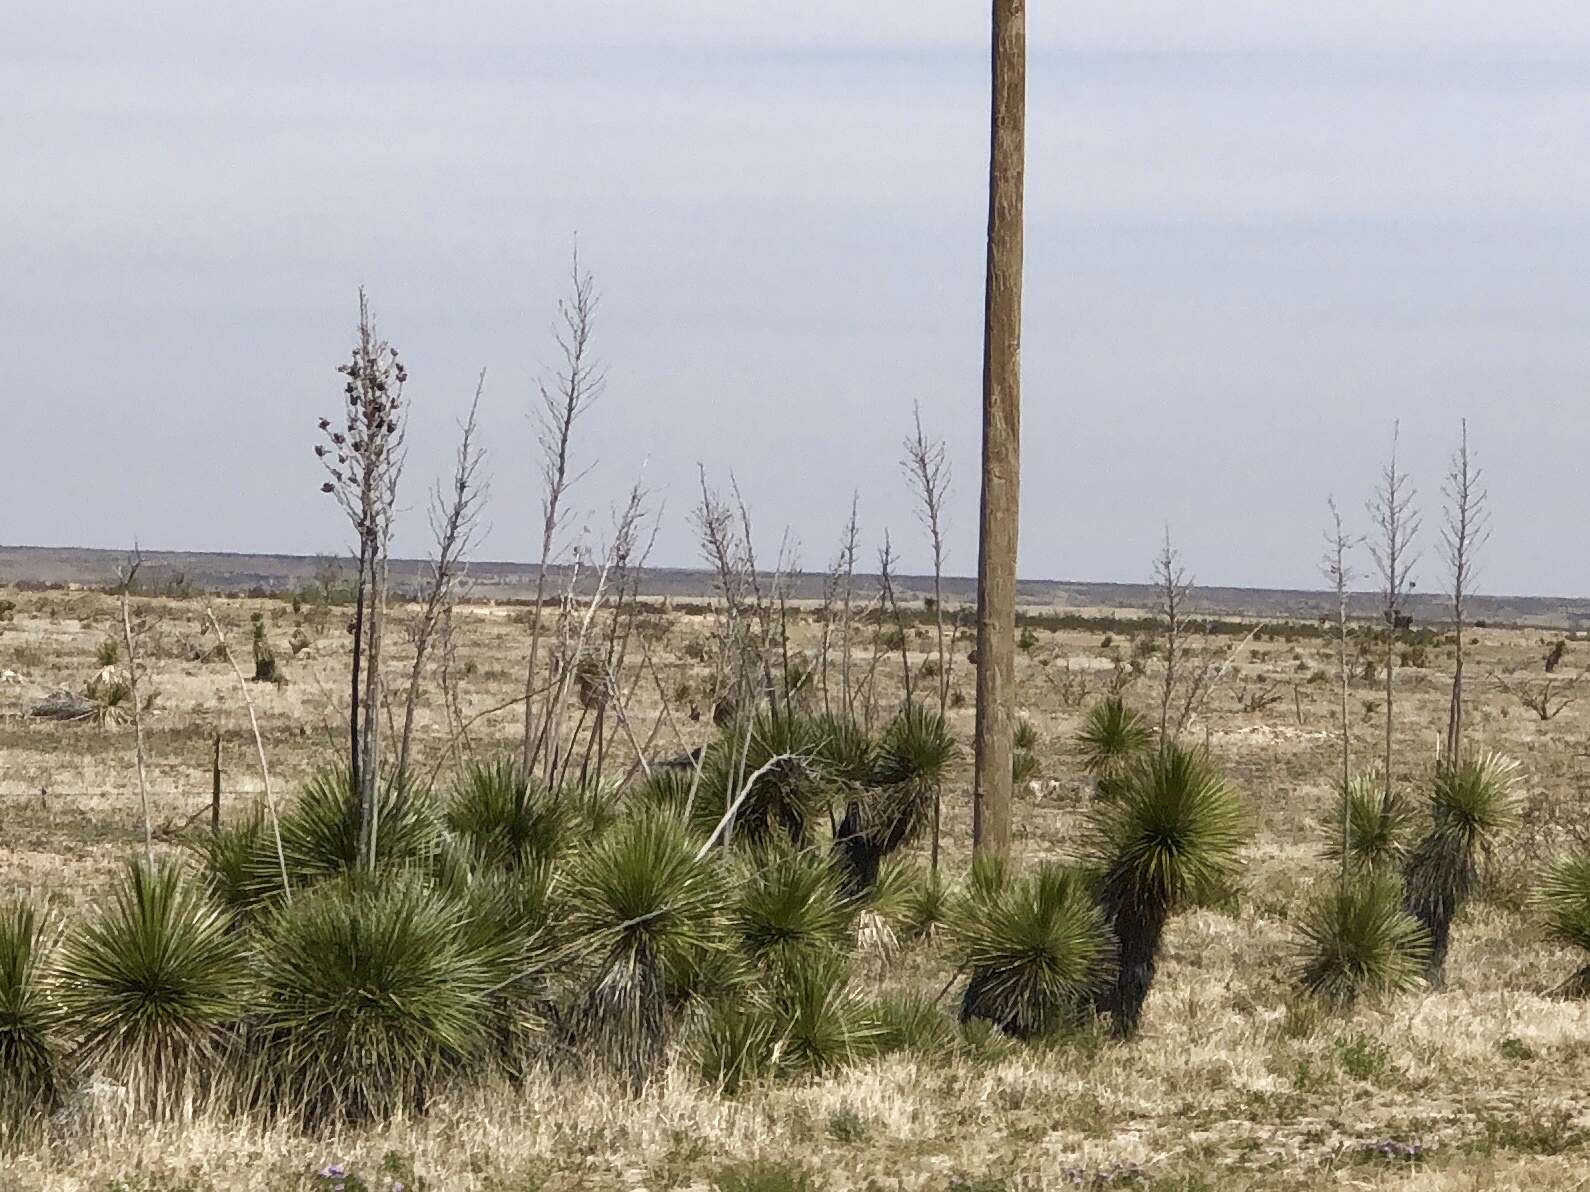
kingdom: Plantae
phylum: Tracheophyta
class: Liliopsida
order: Asparagales
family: Asparagaceae
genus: Yucca
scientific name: Yucca elata
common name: Palmella
